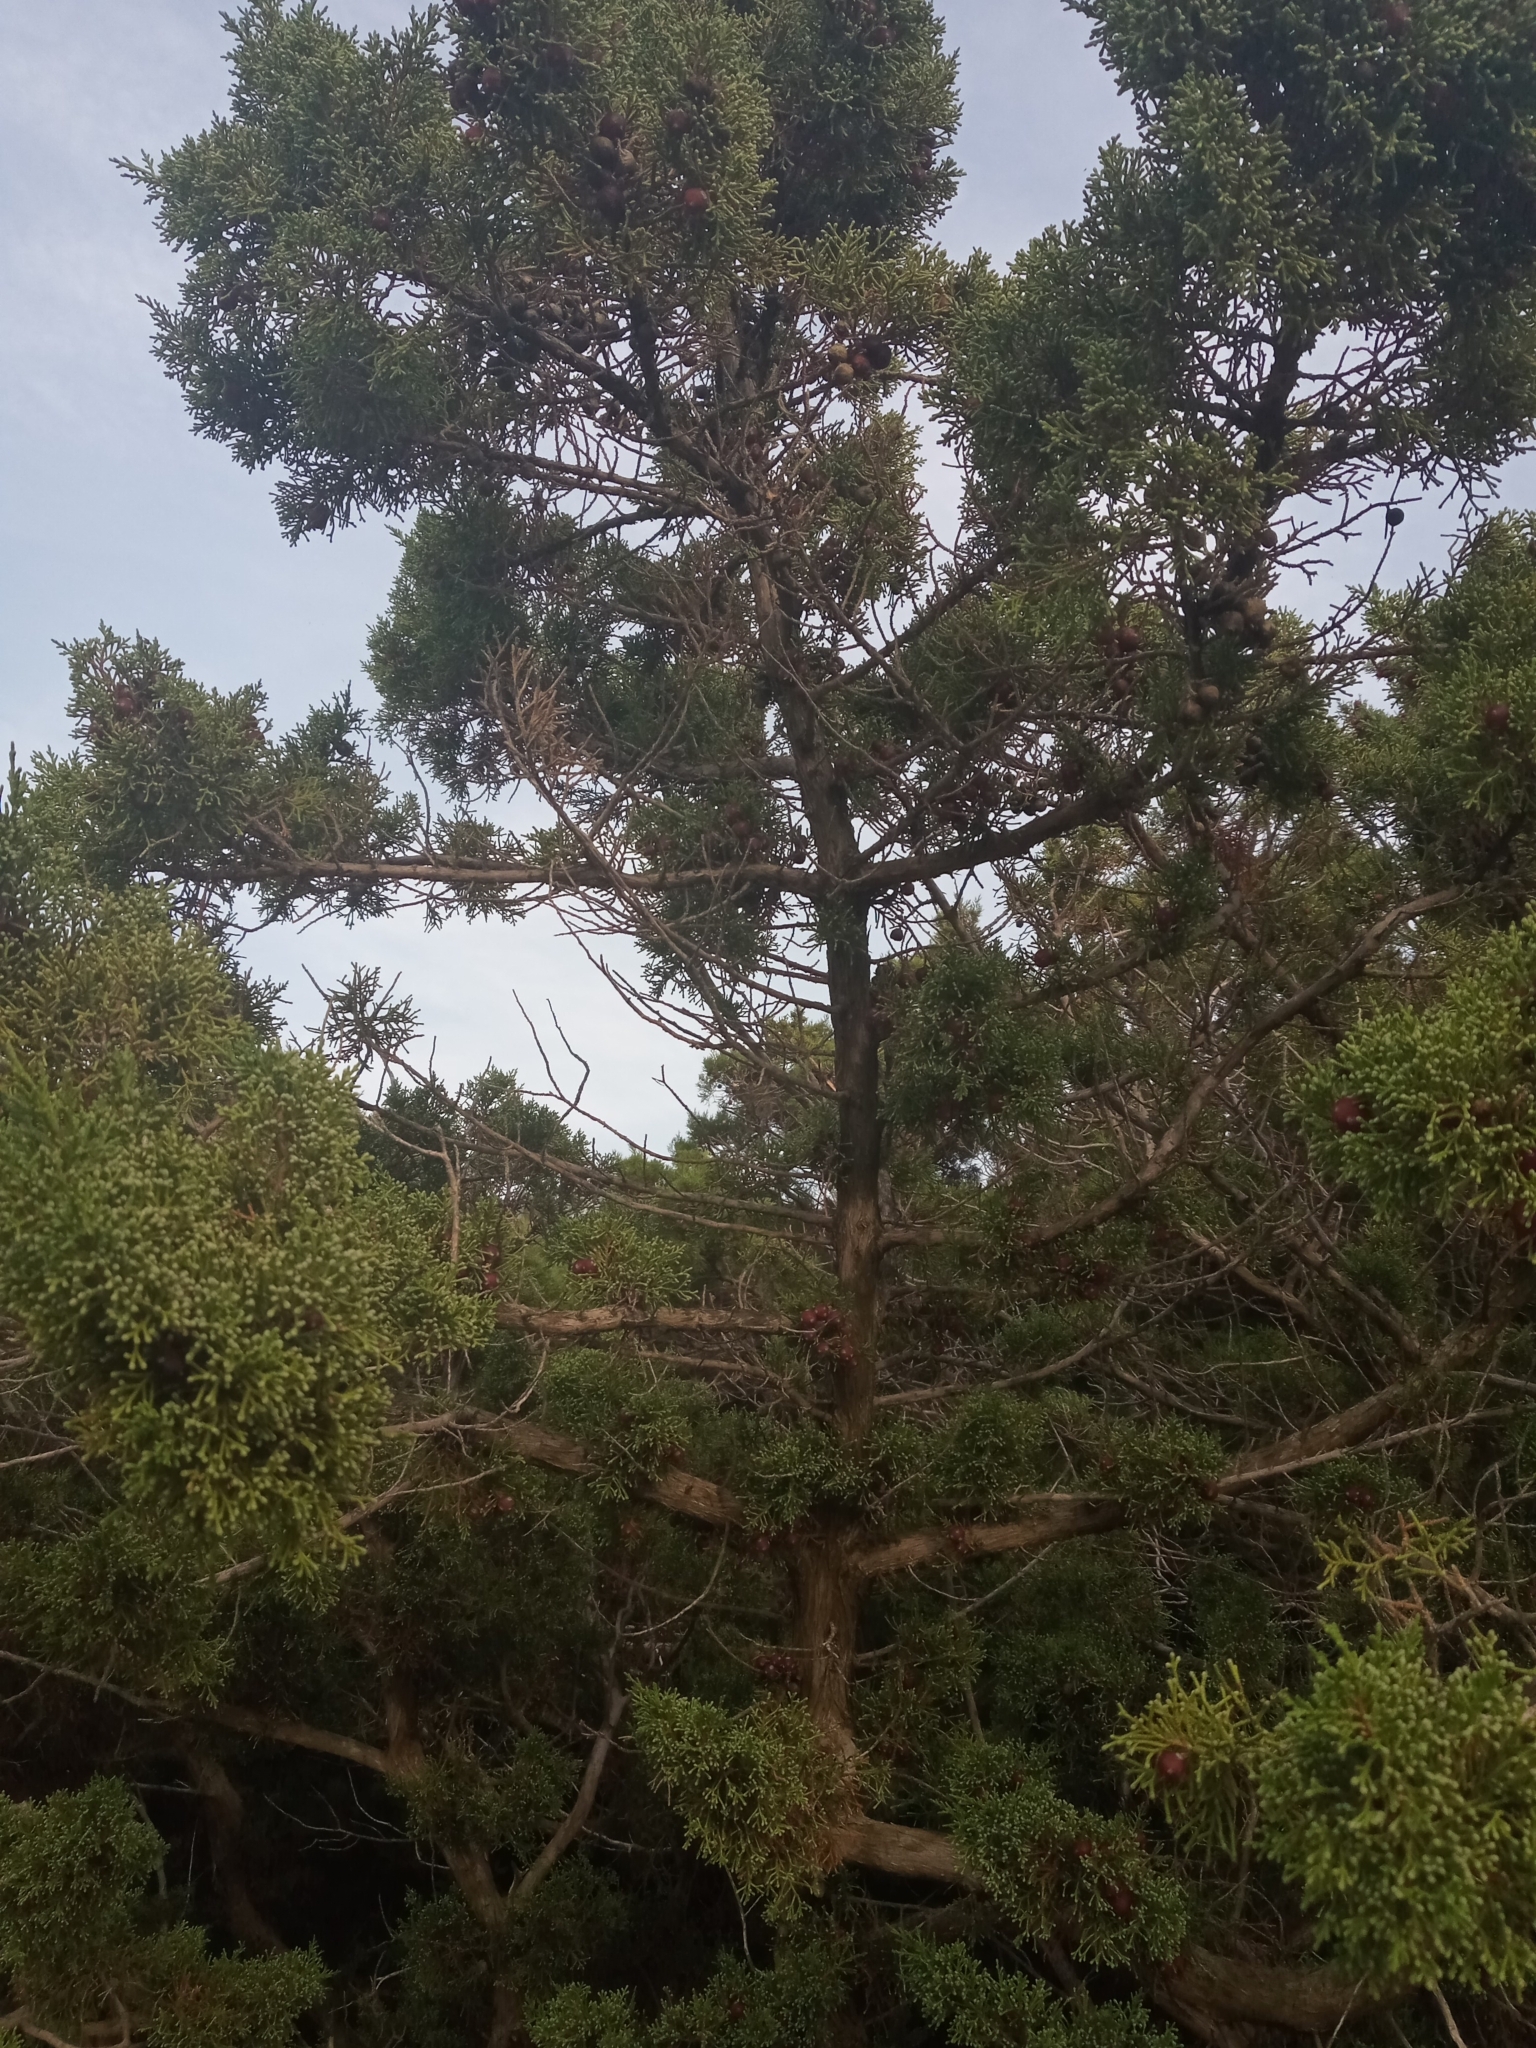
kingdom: Plantae
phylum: Tracheophyta
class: Pinopsida
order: Pinales
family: Cupressaceae
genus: Juniperus
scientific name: Juniperus phoenicea
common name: Phoenician juniper
